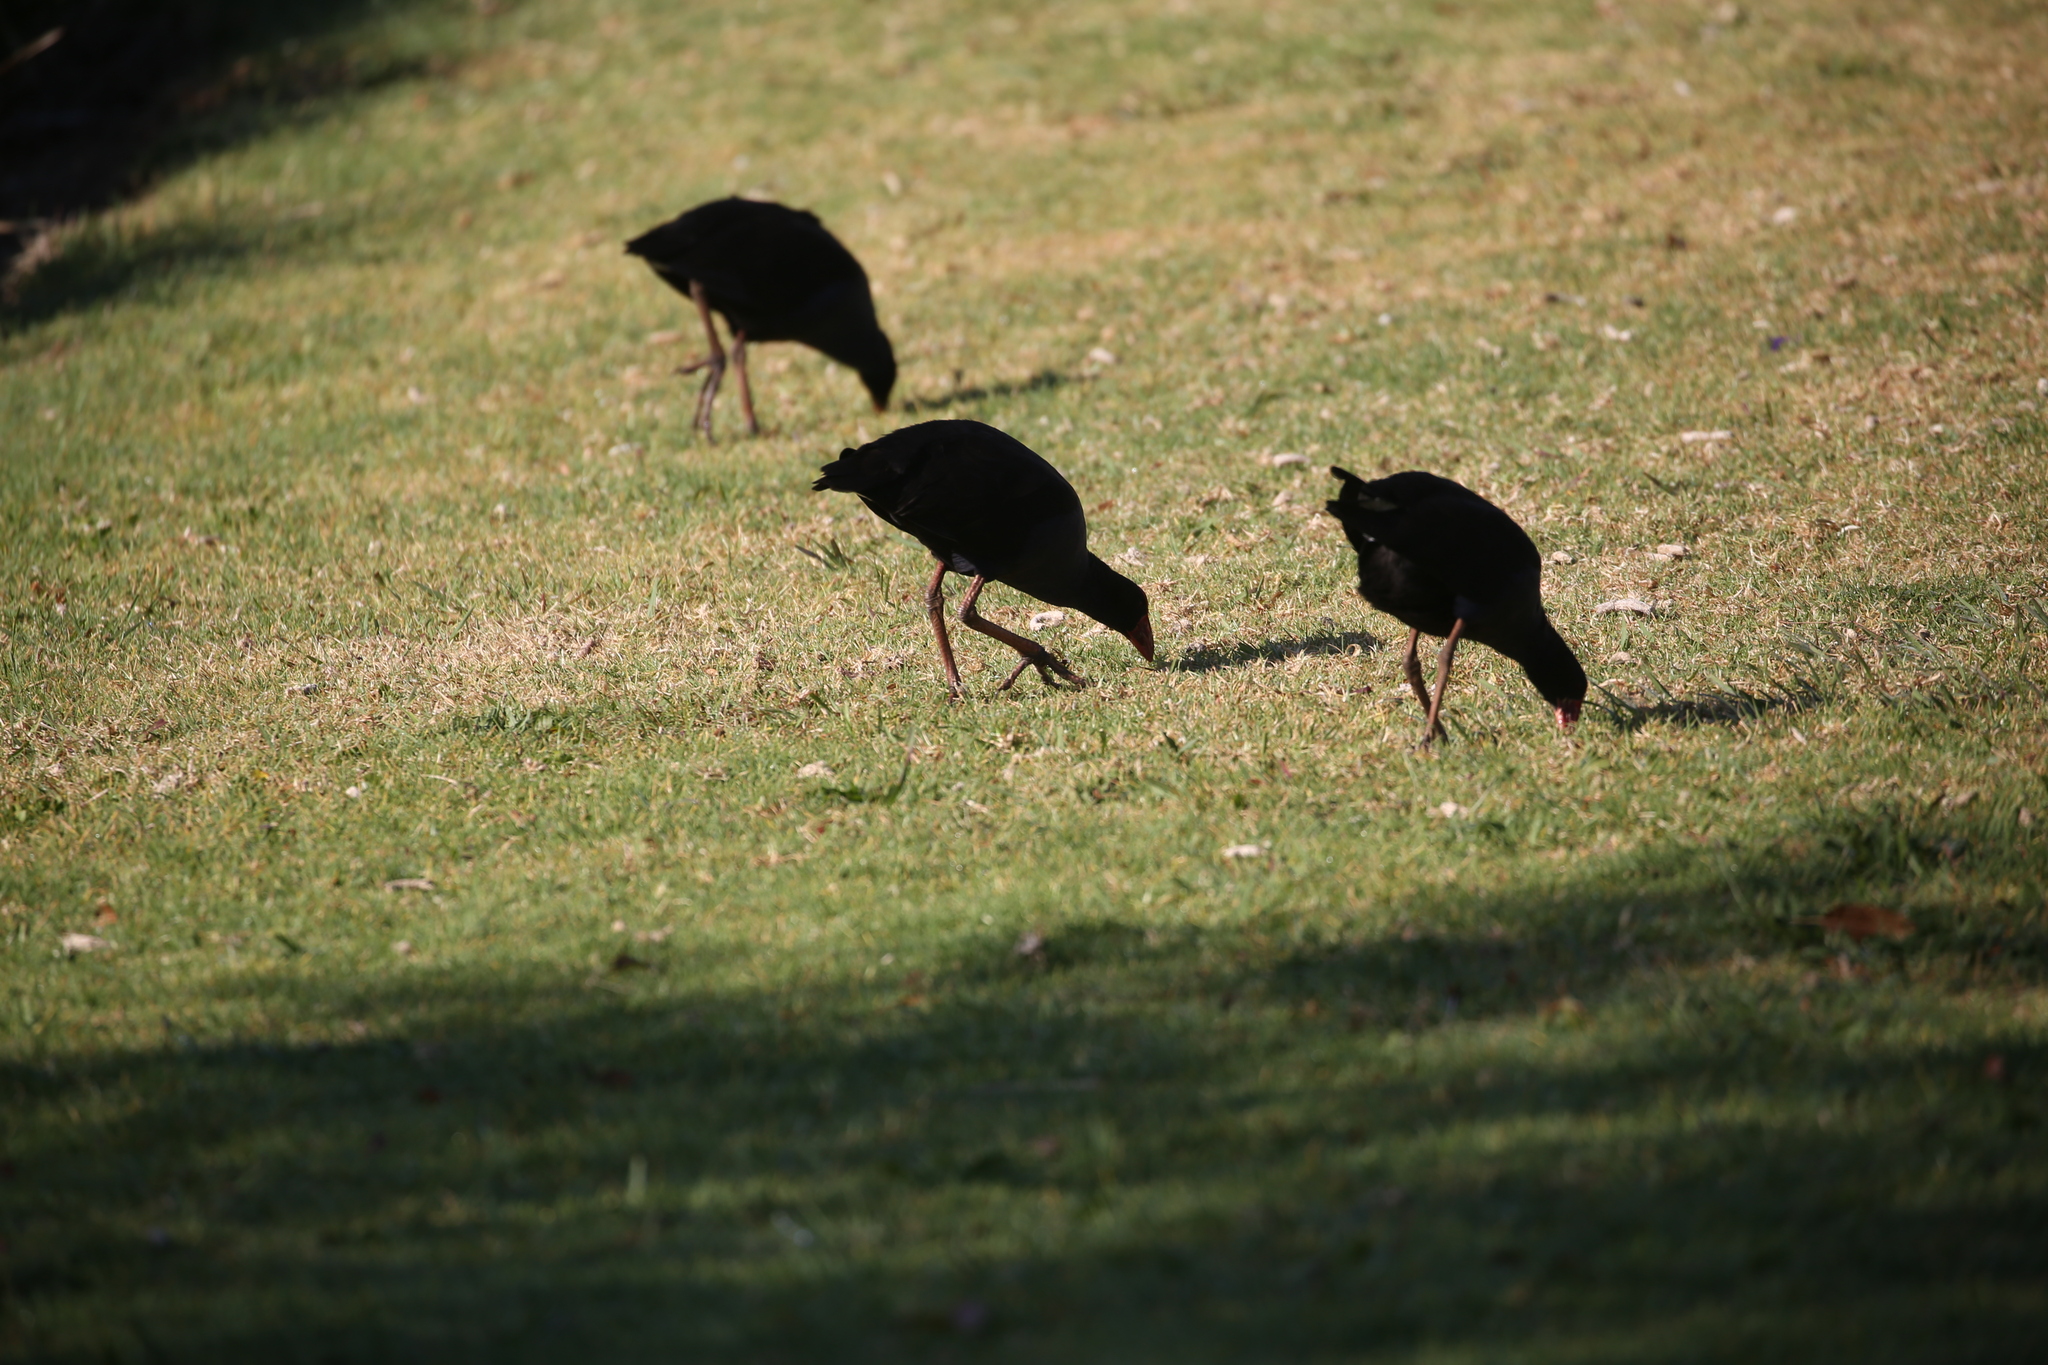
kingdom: Animalia
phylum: Chordata
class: Aves
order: Gruiformes
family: Rallidae
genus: Porphyrio
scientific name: Porphyrio melanotus
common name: Australasian swamphen
